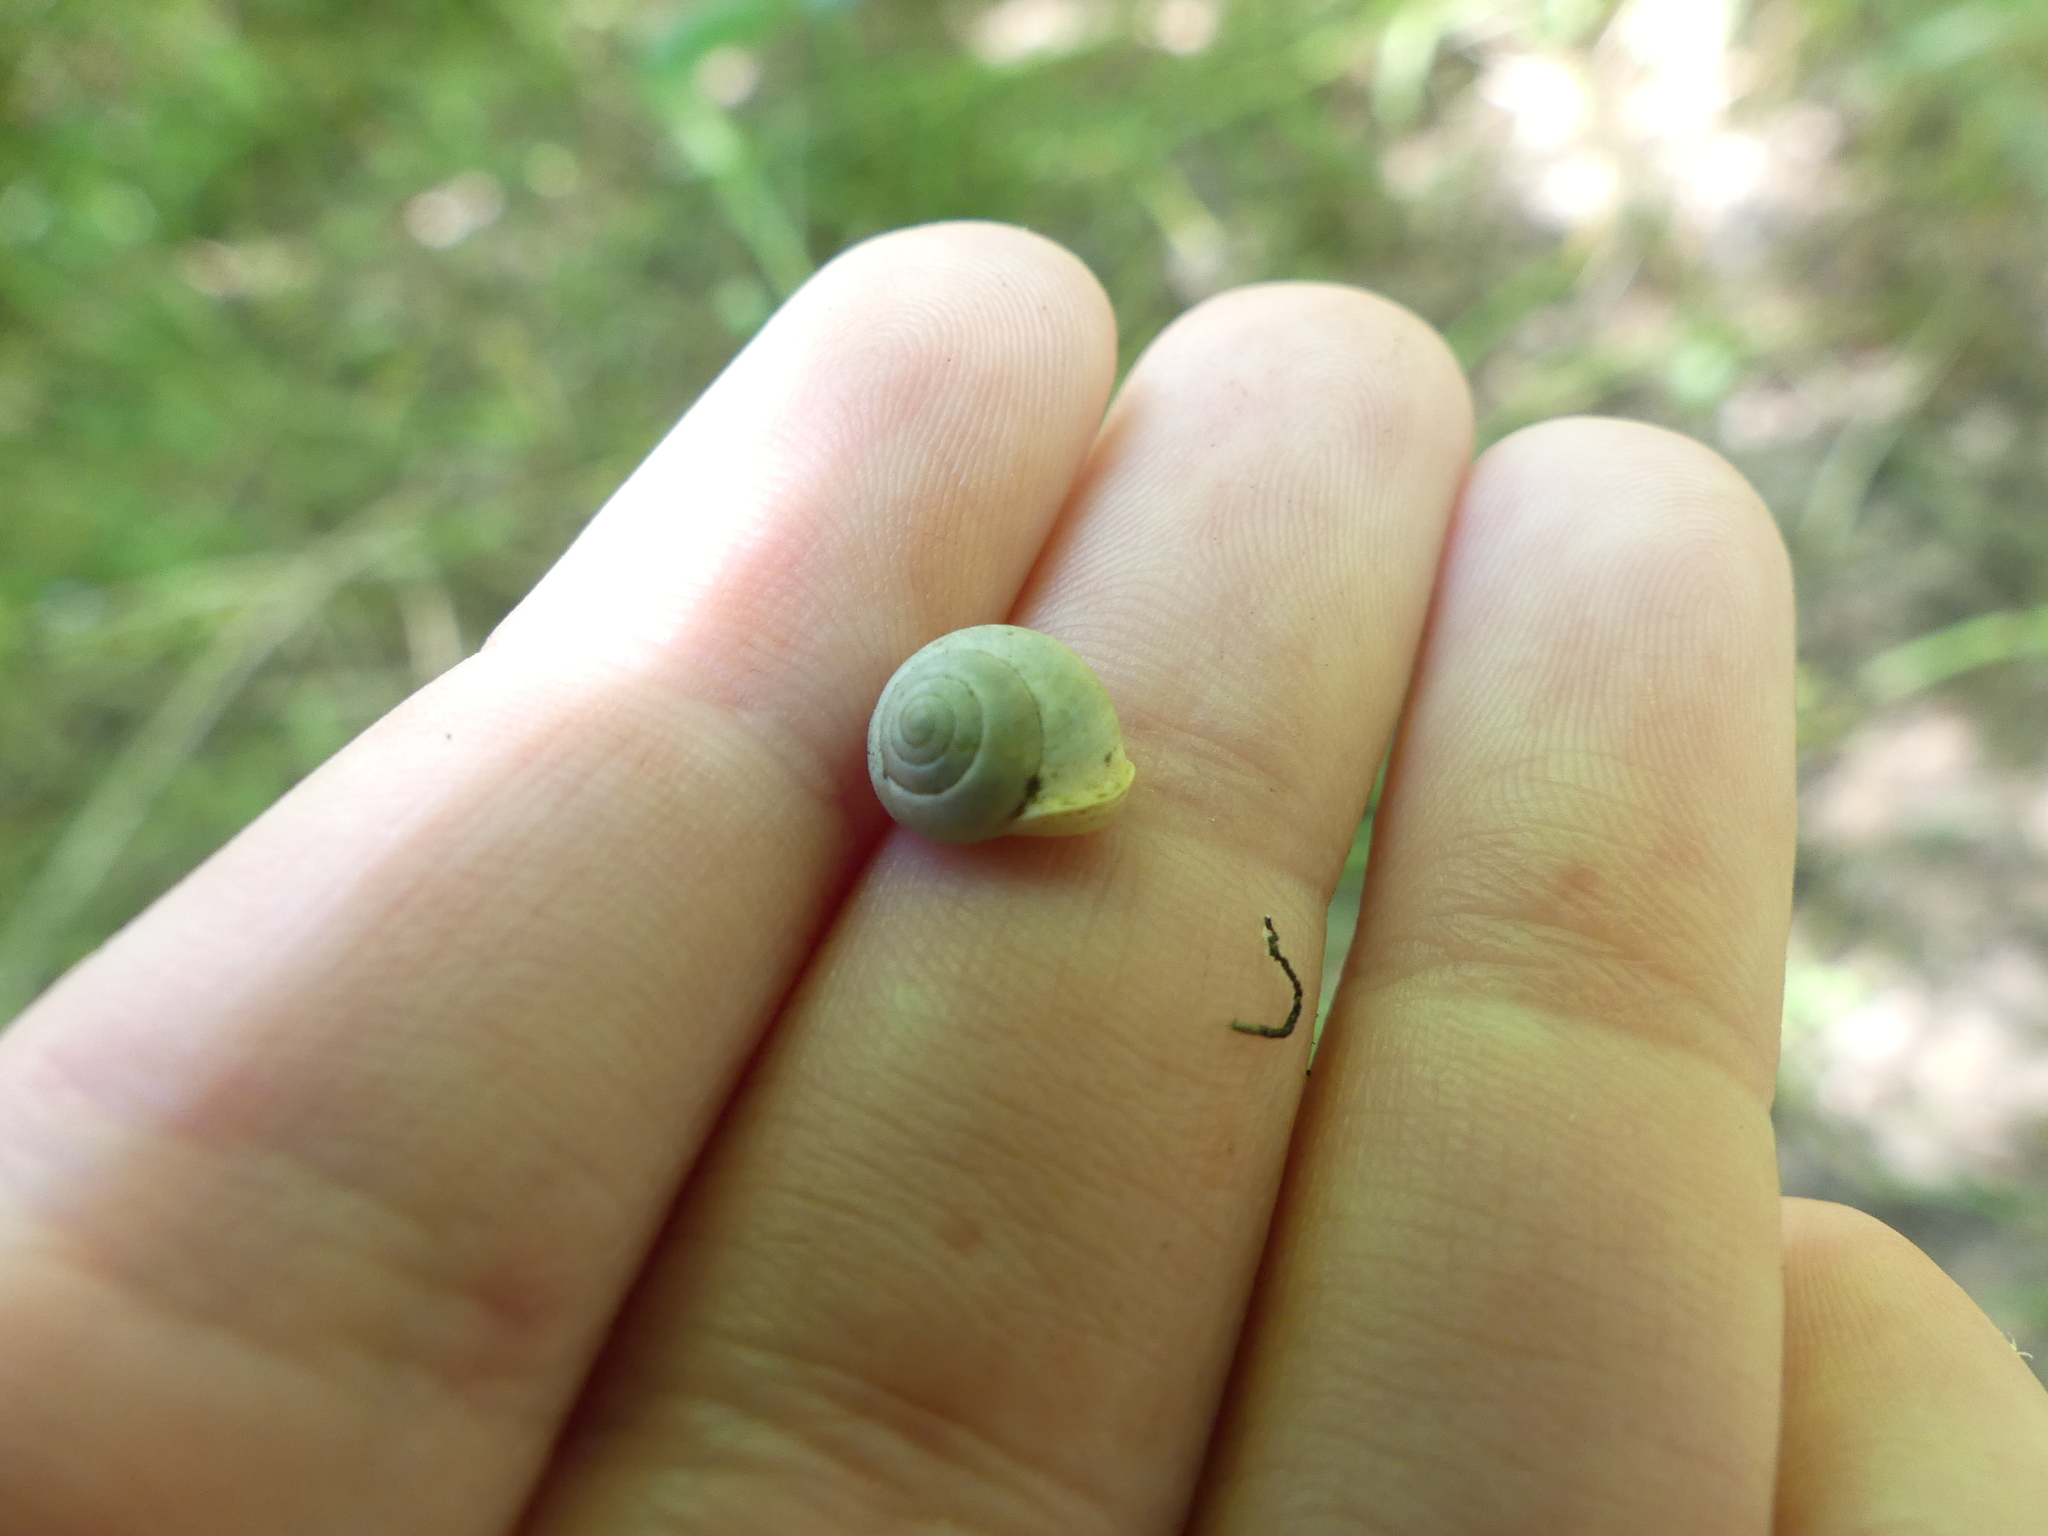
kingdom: Animalia
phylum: Mollusca
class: Gastropoda
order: Cycloneritida
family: Helicinidae
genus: Helicina
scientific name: Helicina orbiculata
